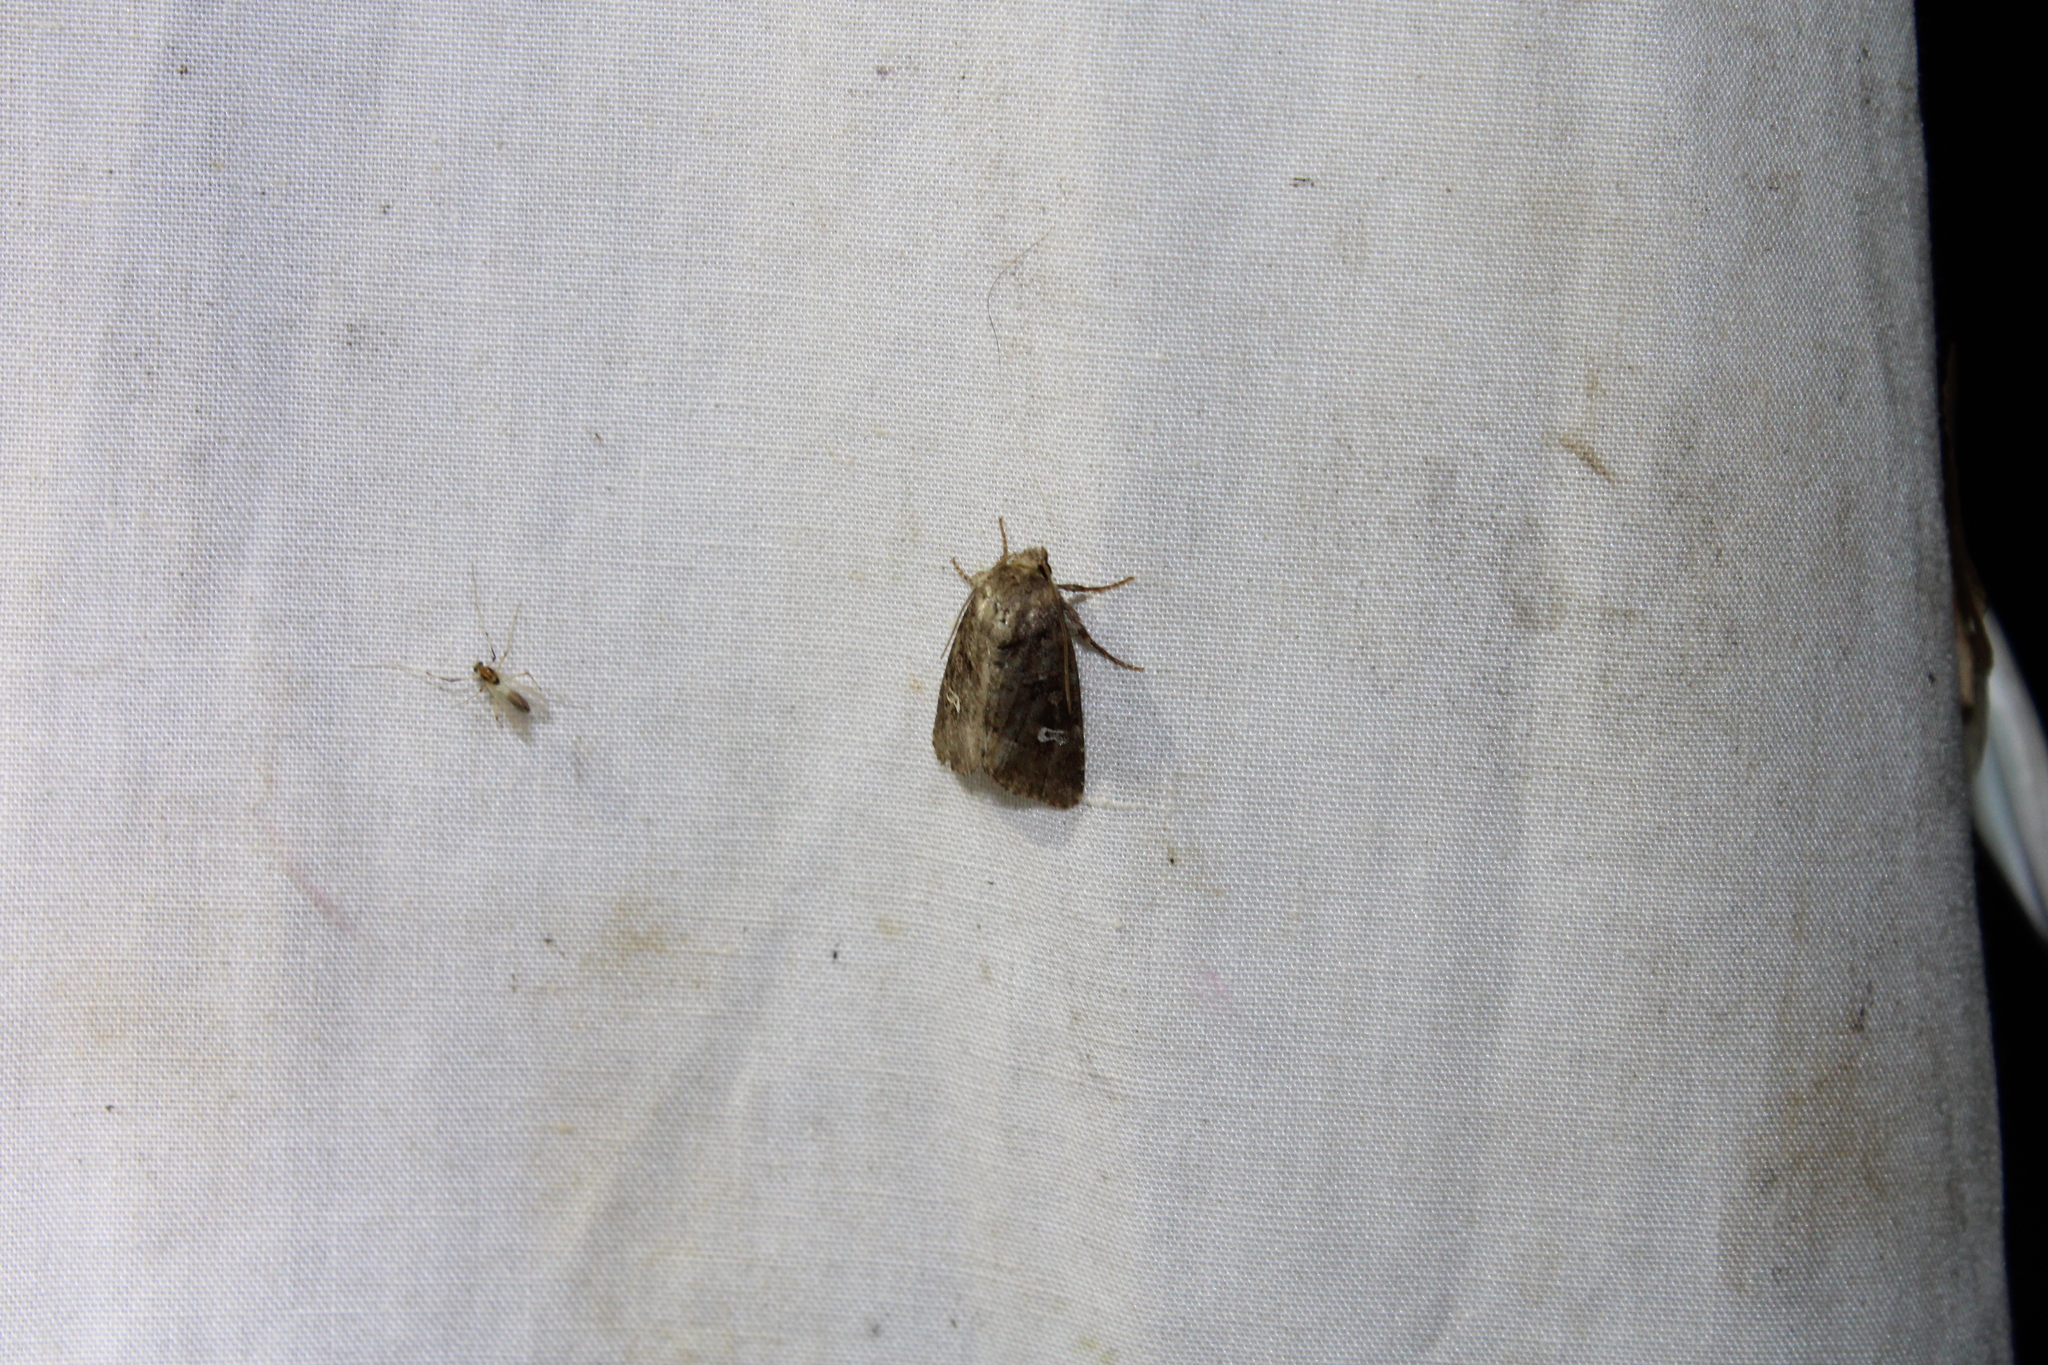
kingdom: Animalia
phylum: Arthropoda
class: Insecta
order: Lepidoptera
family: Noctuidae
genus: Lacinipolia
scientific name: Lacinipolia renigera
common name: Kidney-spotted minor
